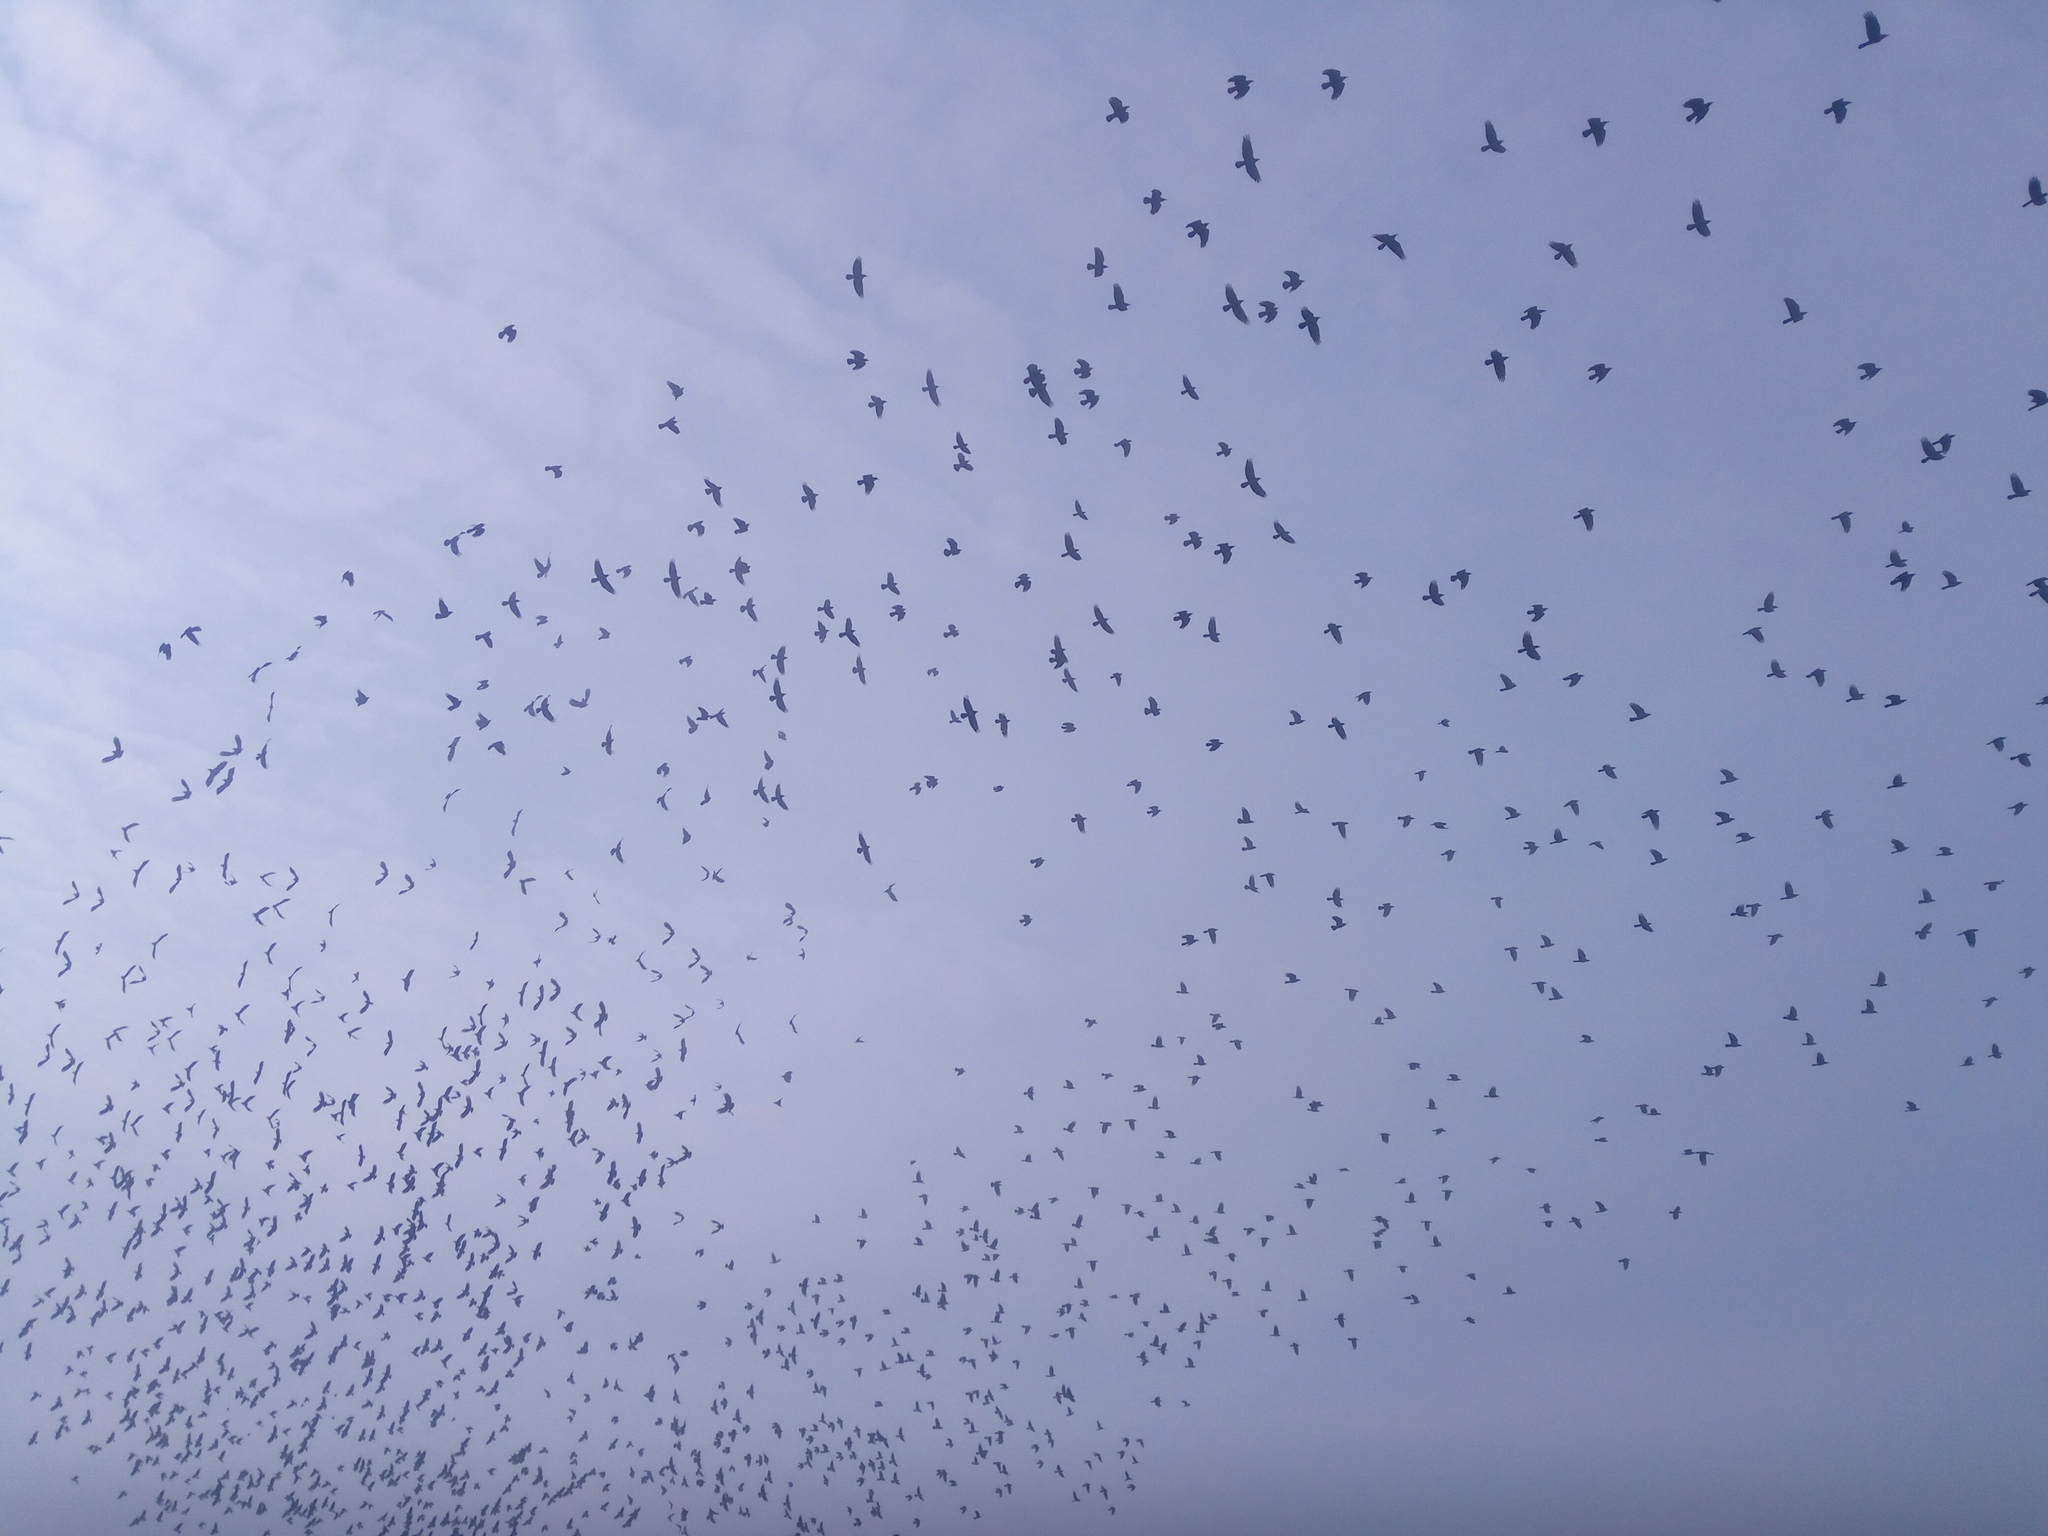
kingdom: Animalia
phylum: Chordata
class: Aves
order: Passeriformes
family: Corvidae
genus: Corvus
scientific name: Corvus frugilegus
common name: Rook
